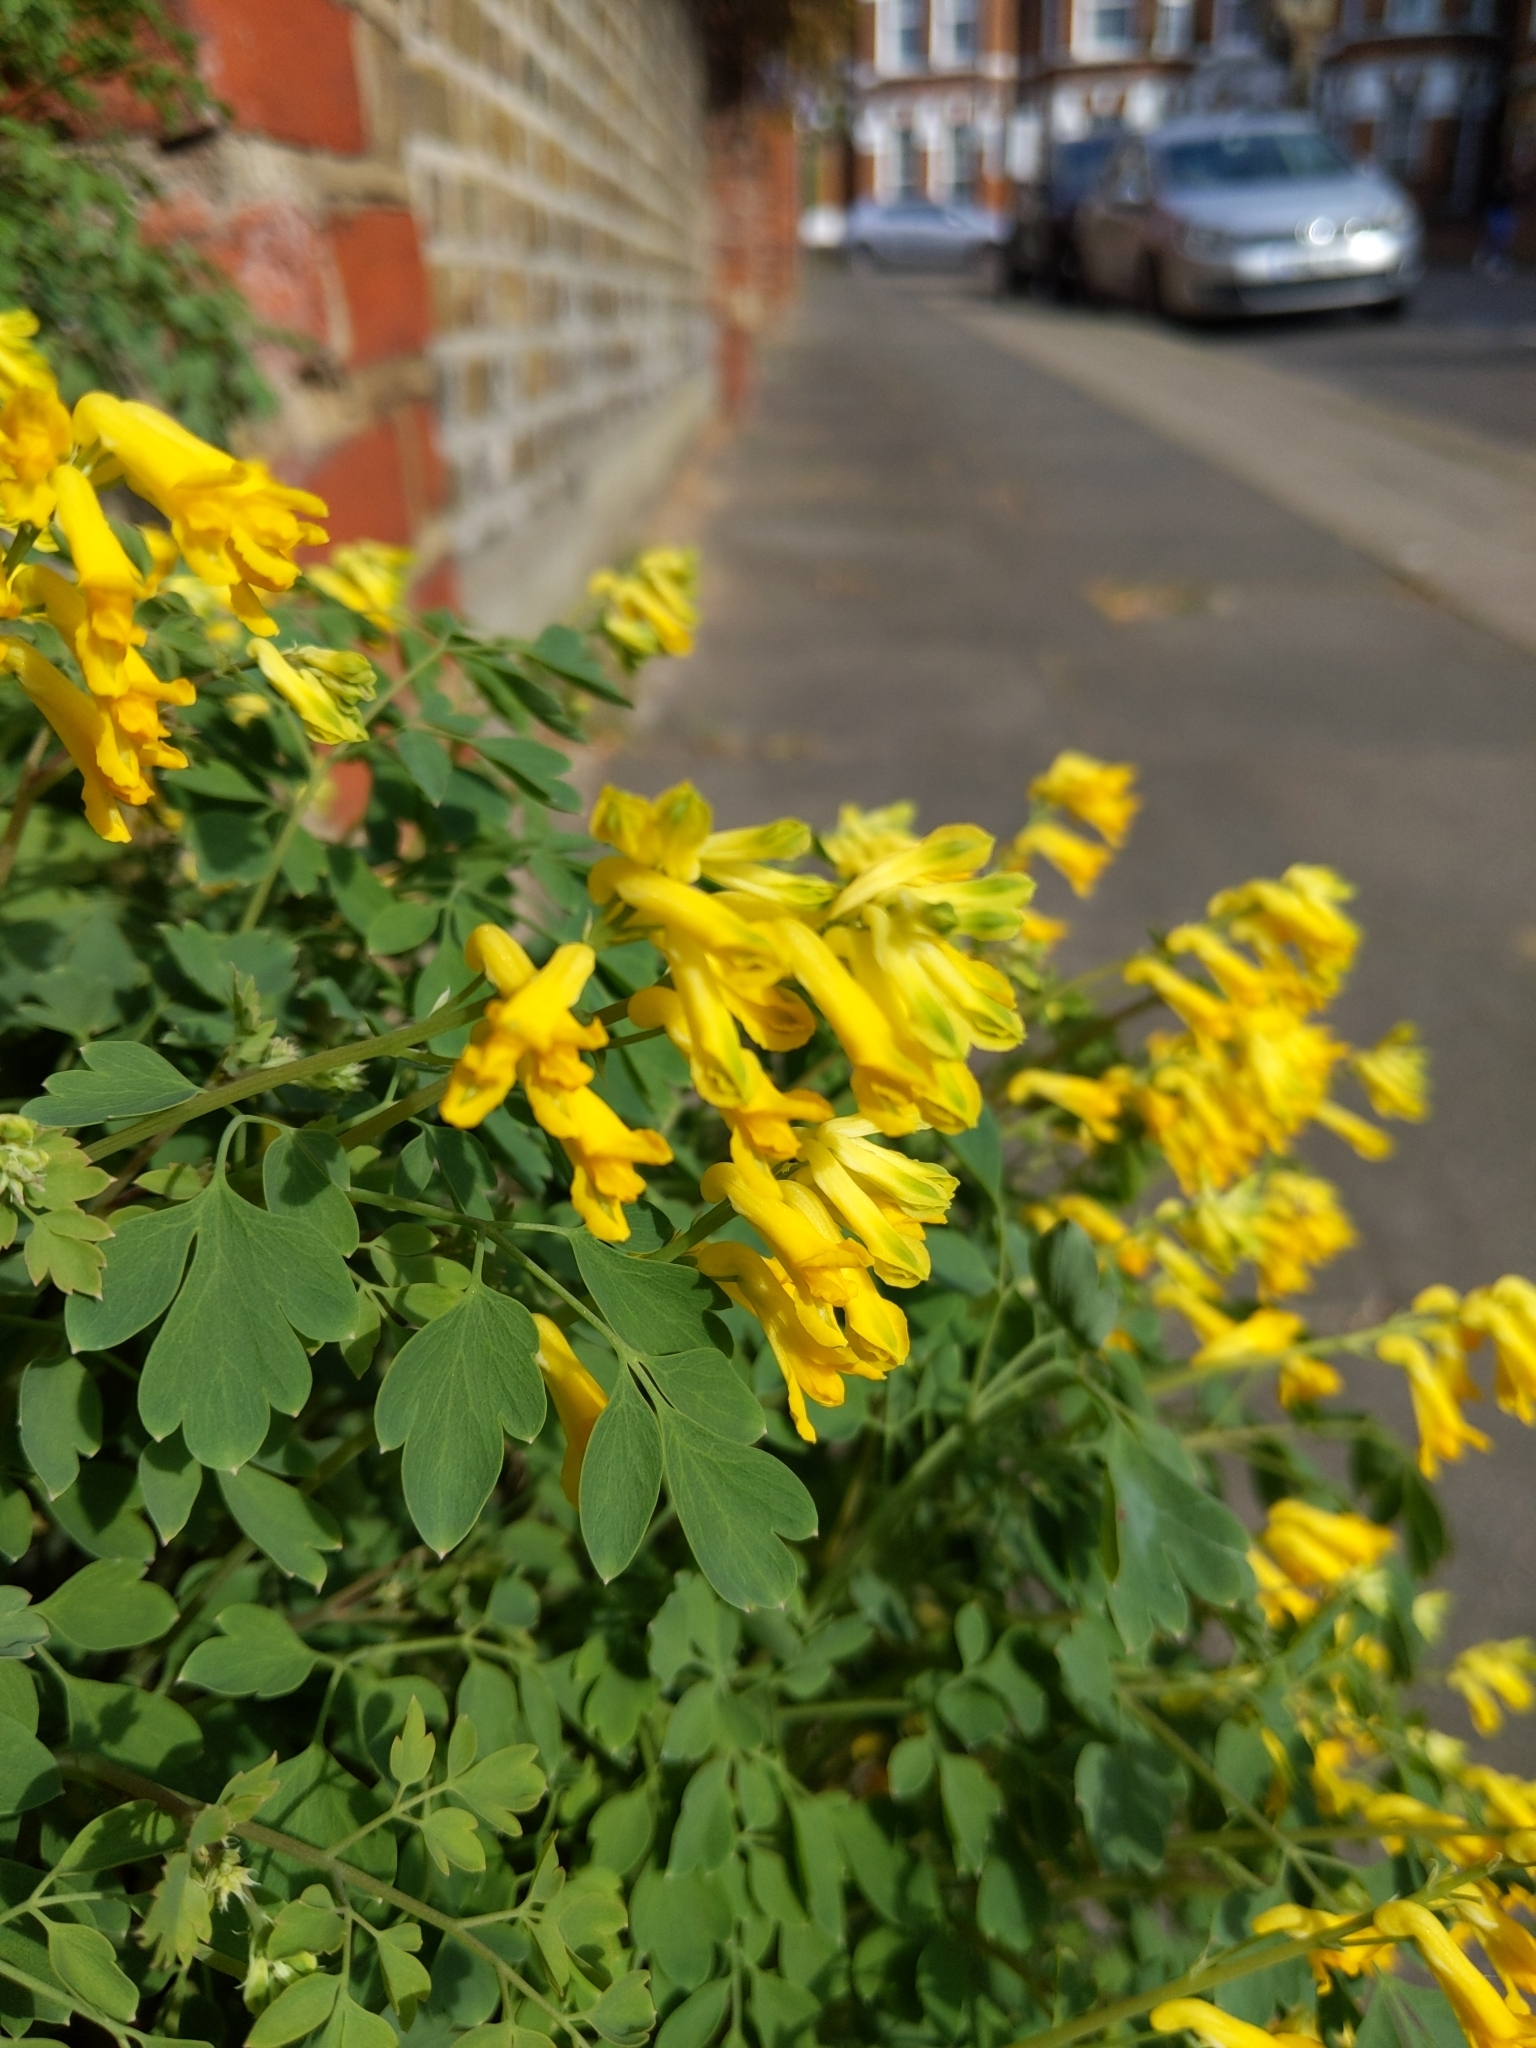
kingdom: Plantae
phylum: Tracheophyta
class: Magnoliopsida
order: Ranunculales
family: Papaveraceae
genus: Pseudofumaria
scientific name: Pseudofumaria lutea
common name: Yellow corydalis
